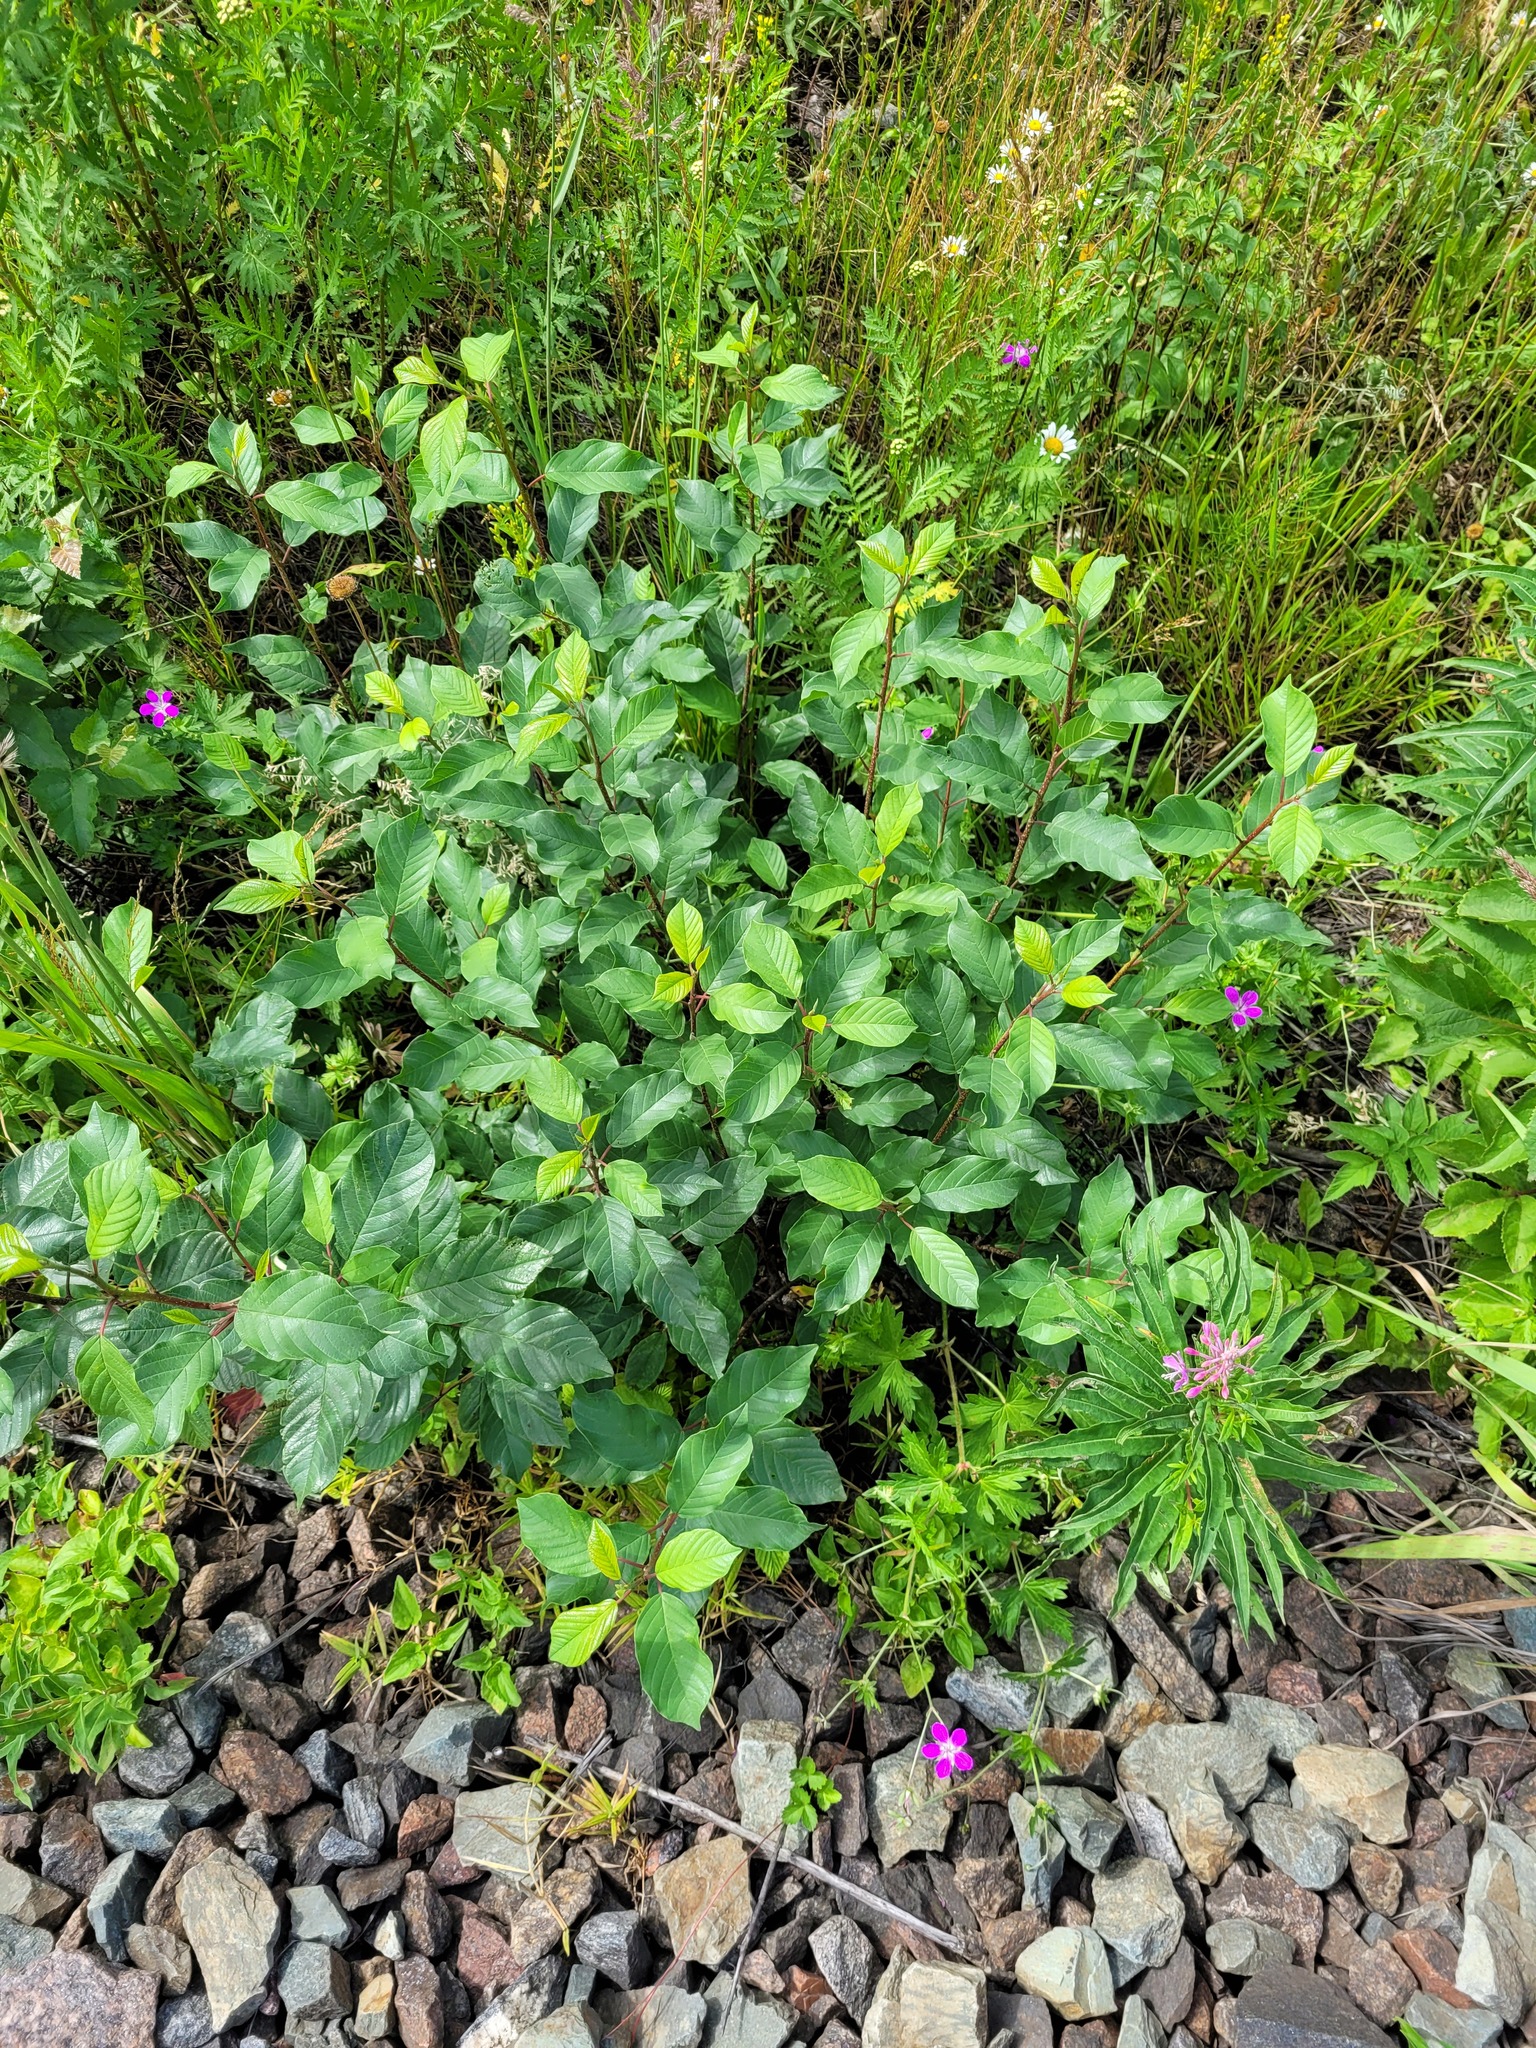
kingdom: Plantae
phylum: Tracheophyta
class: Magnoliopsida
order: Rosales
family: Rhamnaceae
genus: Frangula
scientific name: Frangula alnus
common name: Alder buckthorn
